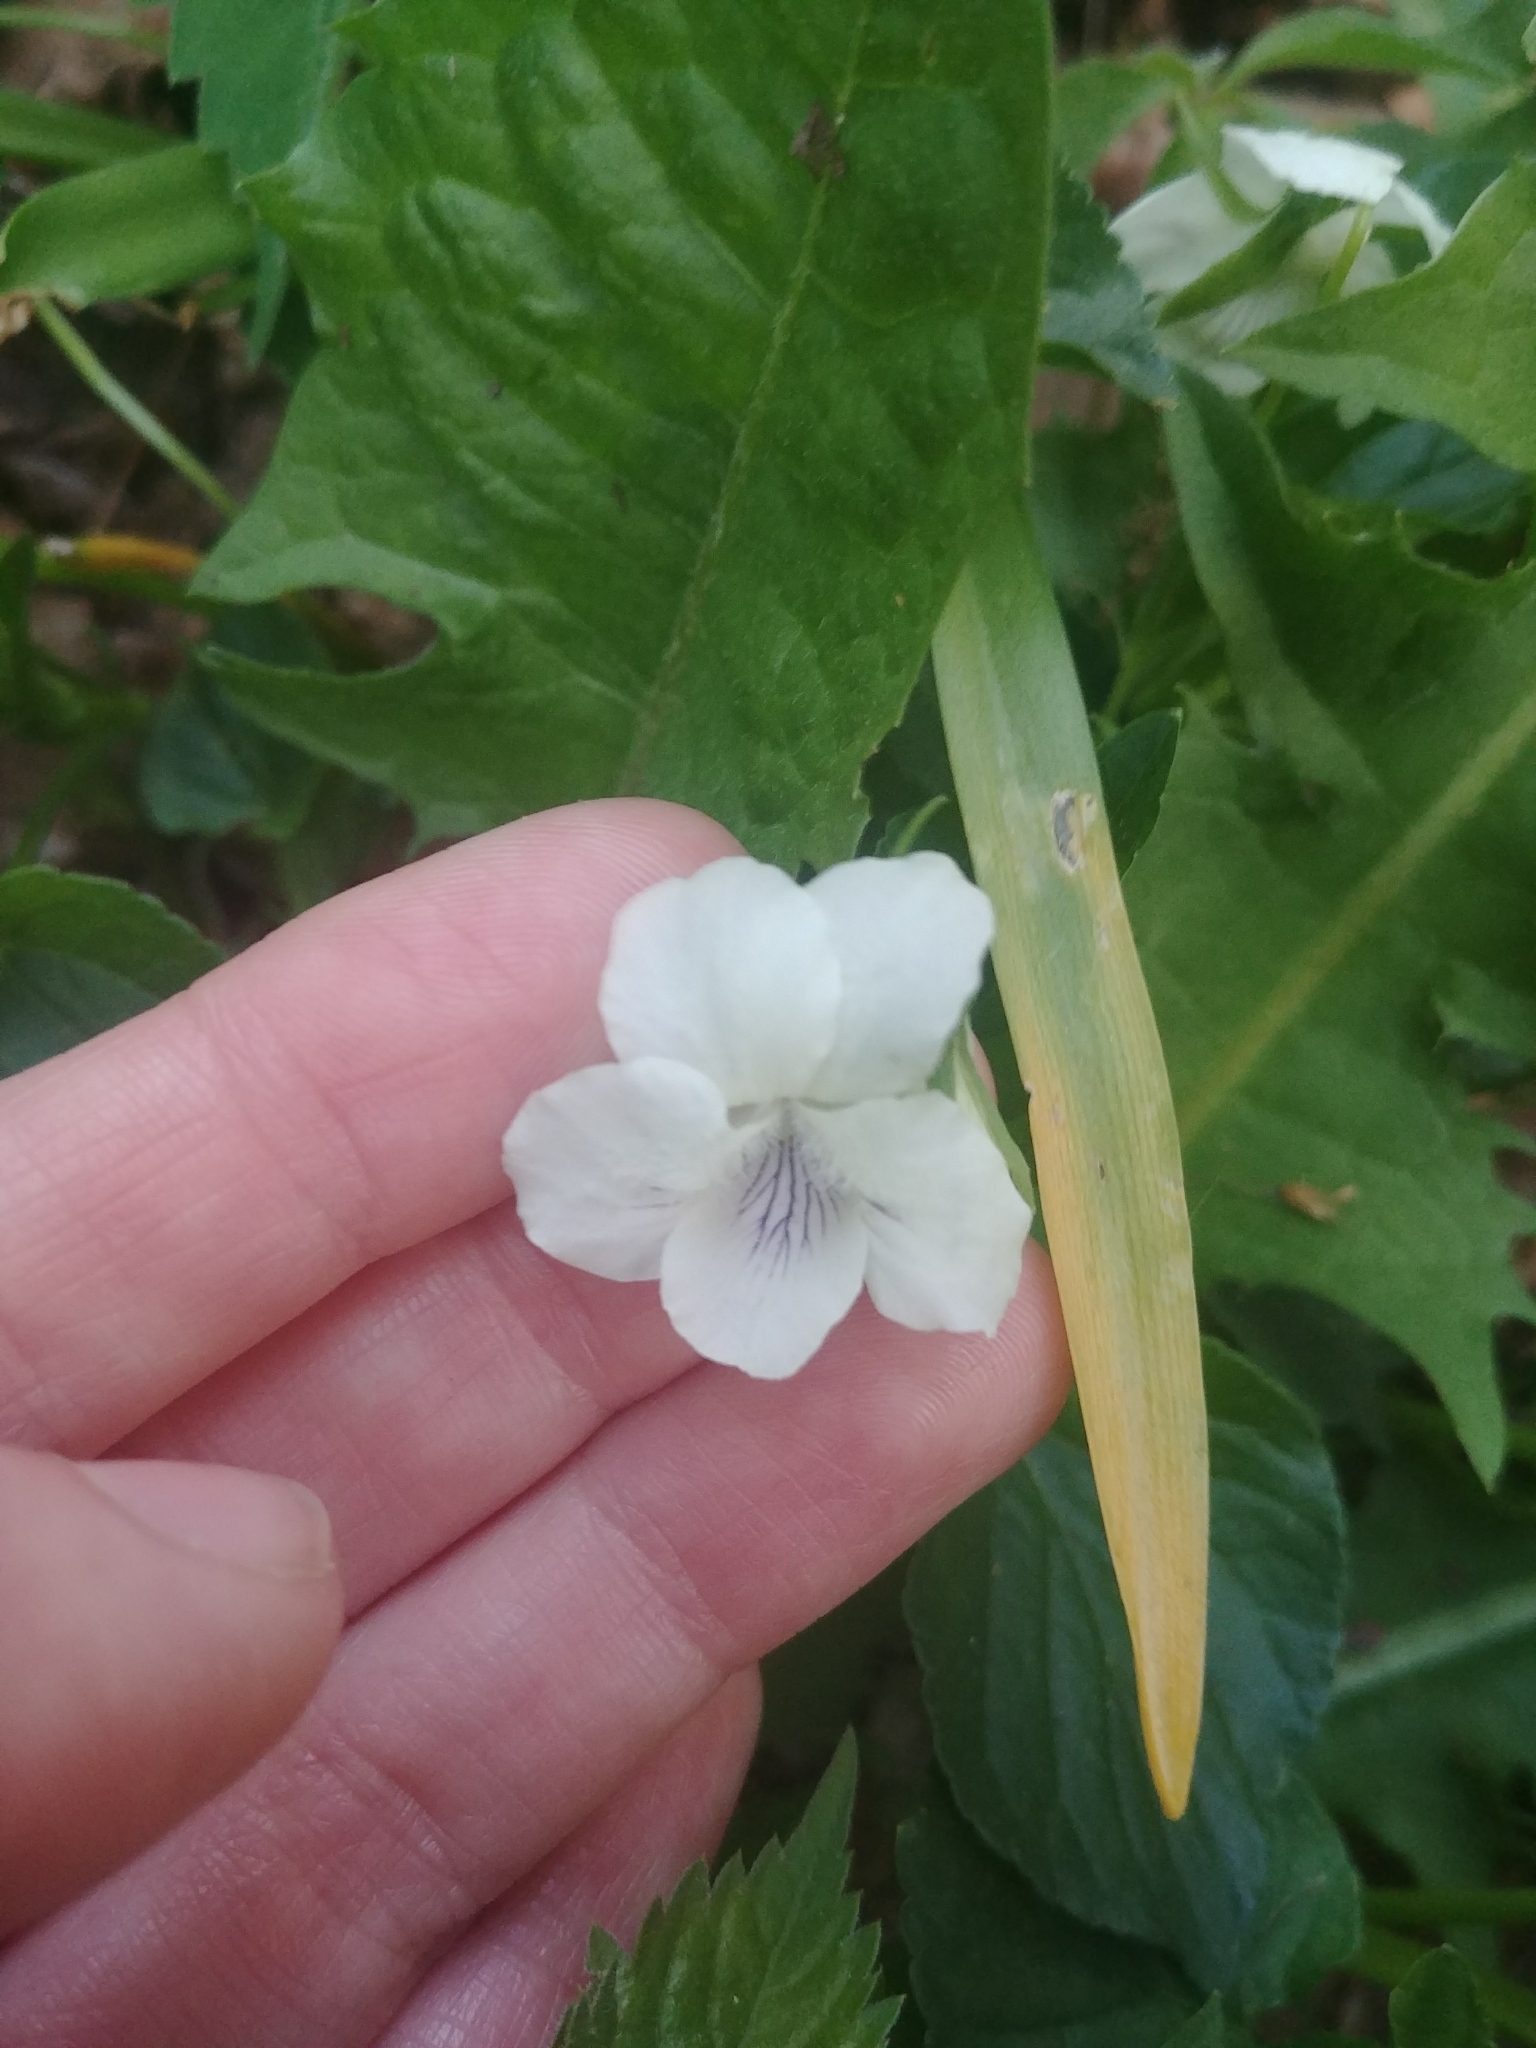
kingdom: Plantae
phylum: Tracheophyta
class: Magnoliopsida
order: Malpighiales
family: Violaceae
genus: Viola
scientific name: Viola striata
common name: Cream violet
